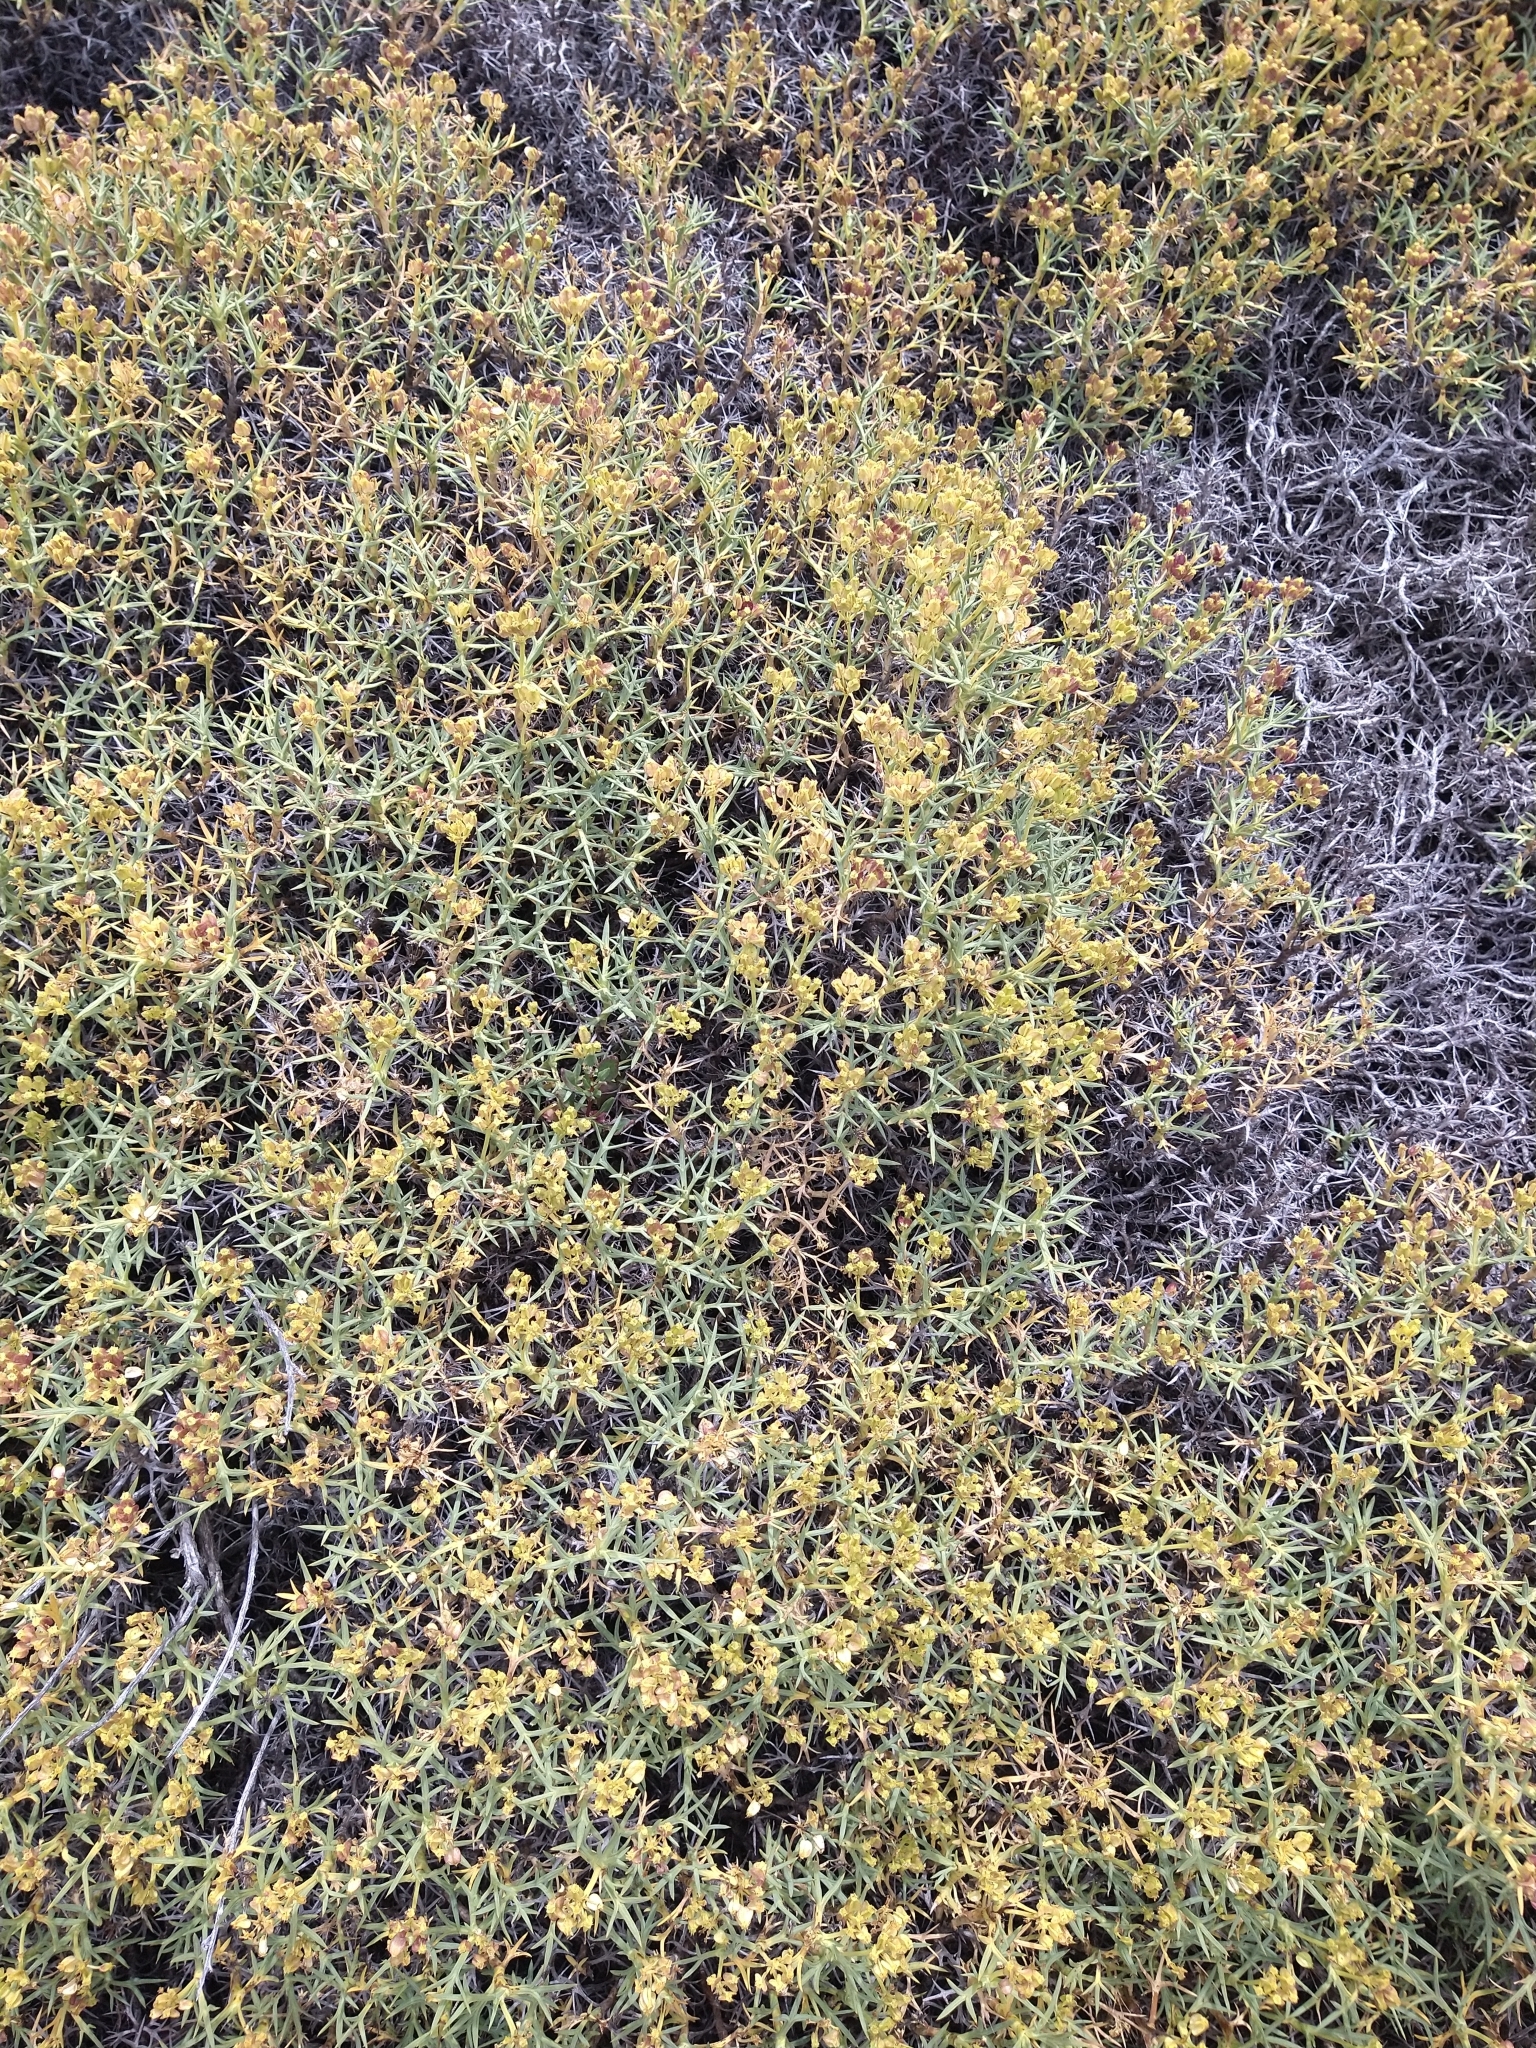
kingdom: Plantae
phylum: Tracheophyta
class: Magnoliopsida
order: Apiales
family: Apiaceae
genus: Azorella
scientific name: Azorella prolifera
